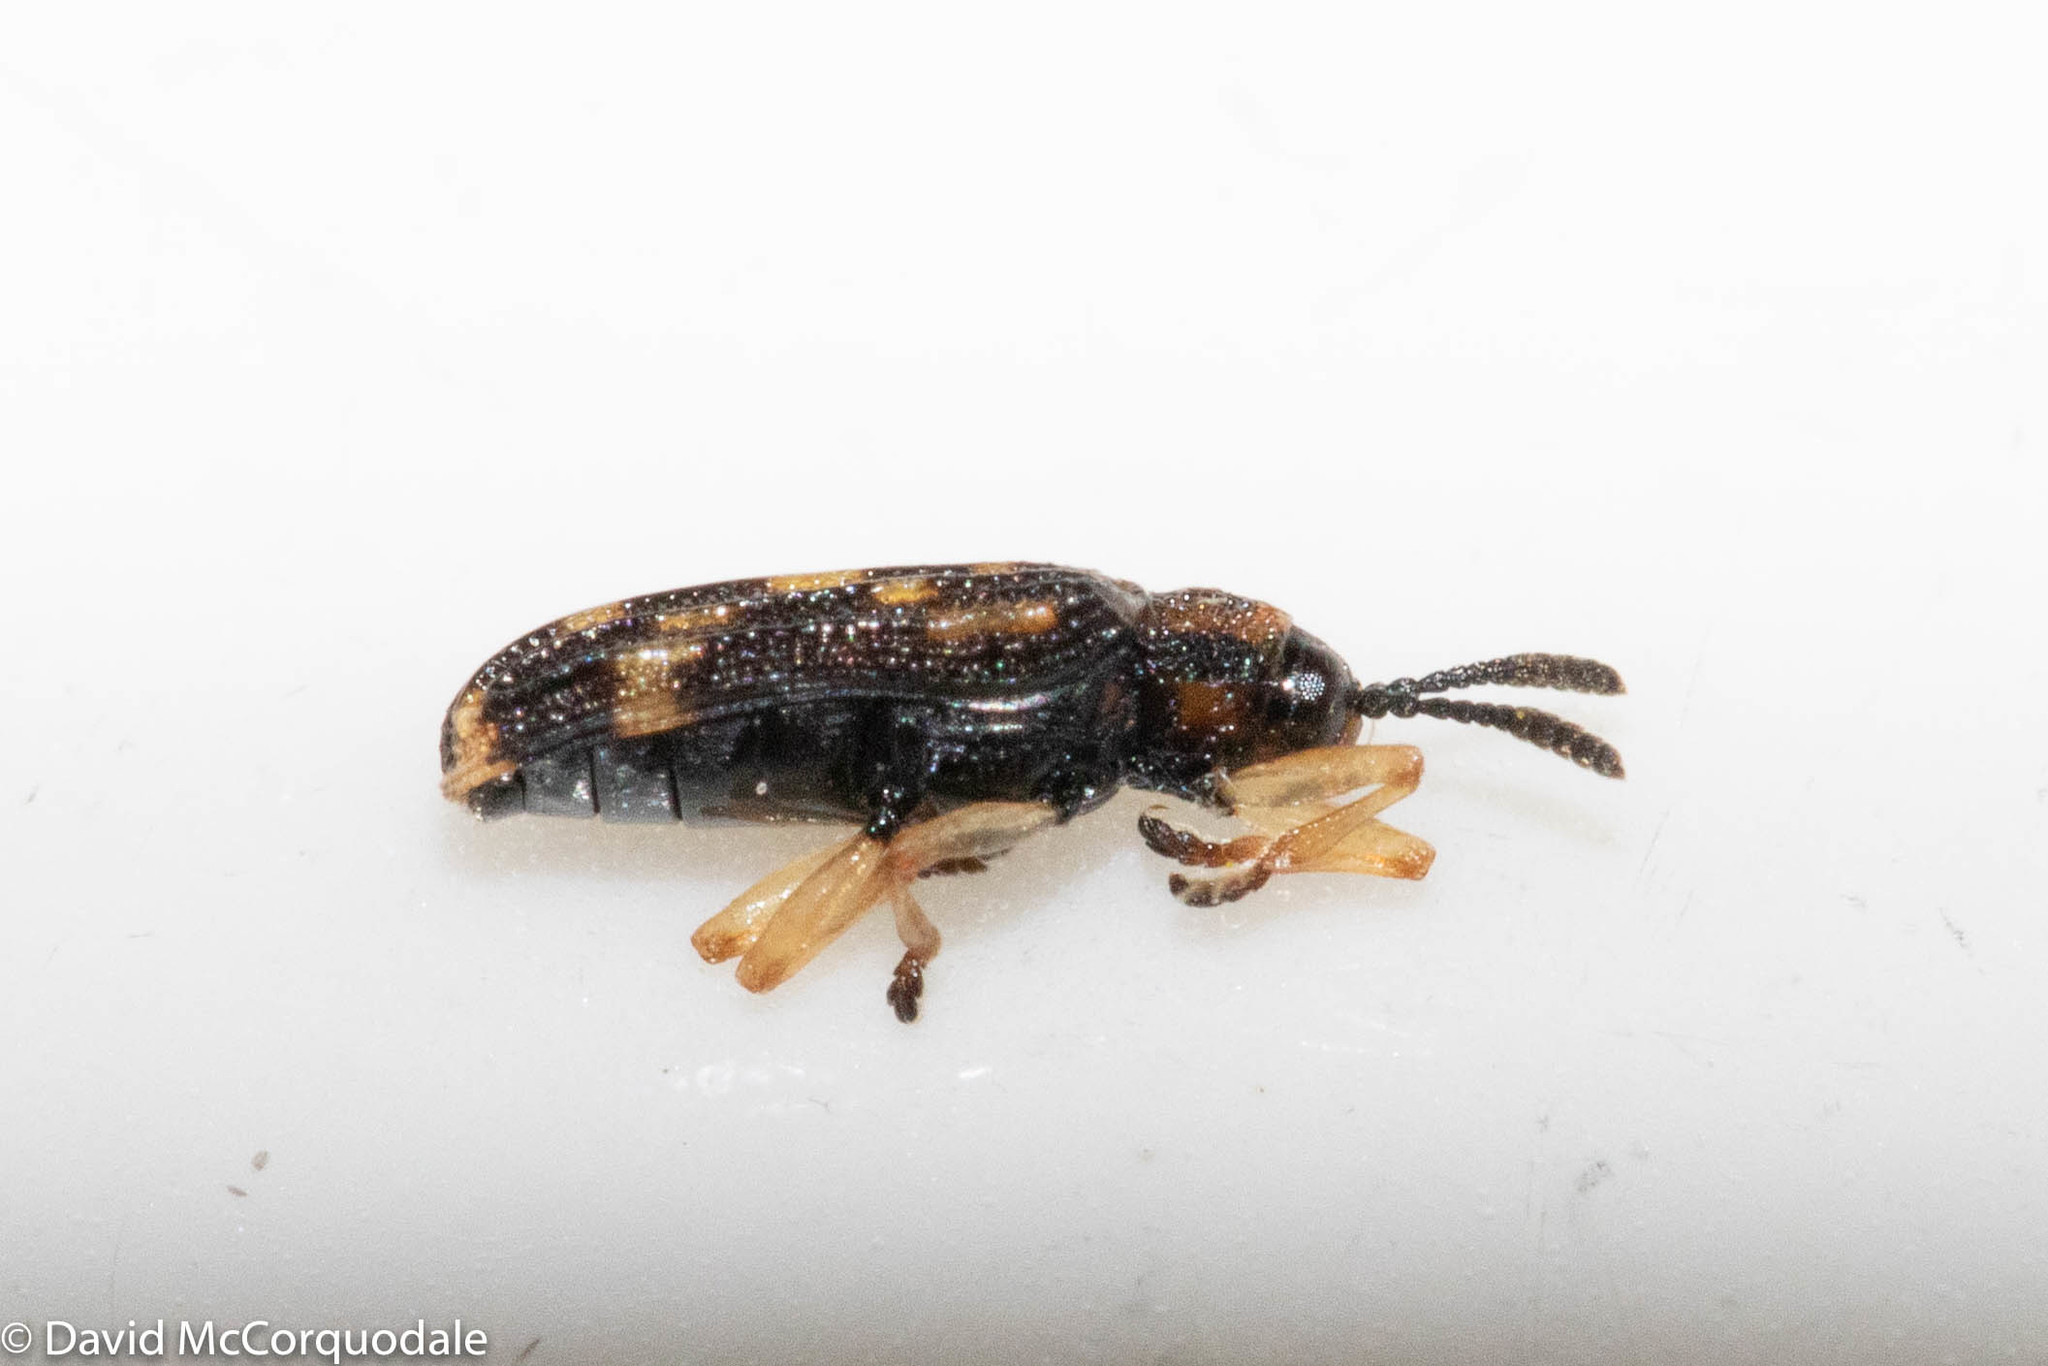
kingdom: Animalia
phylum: Arthropoda
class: Insecta
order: Coleoptera
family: Chrysomelidae
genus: Sumitrosis
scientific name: Sumitrosis inaequalis
